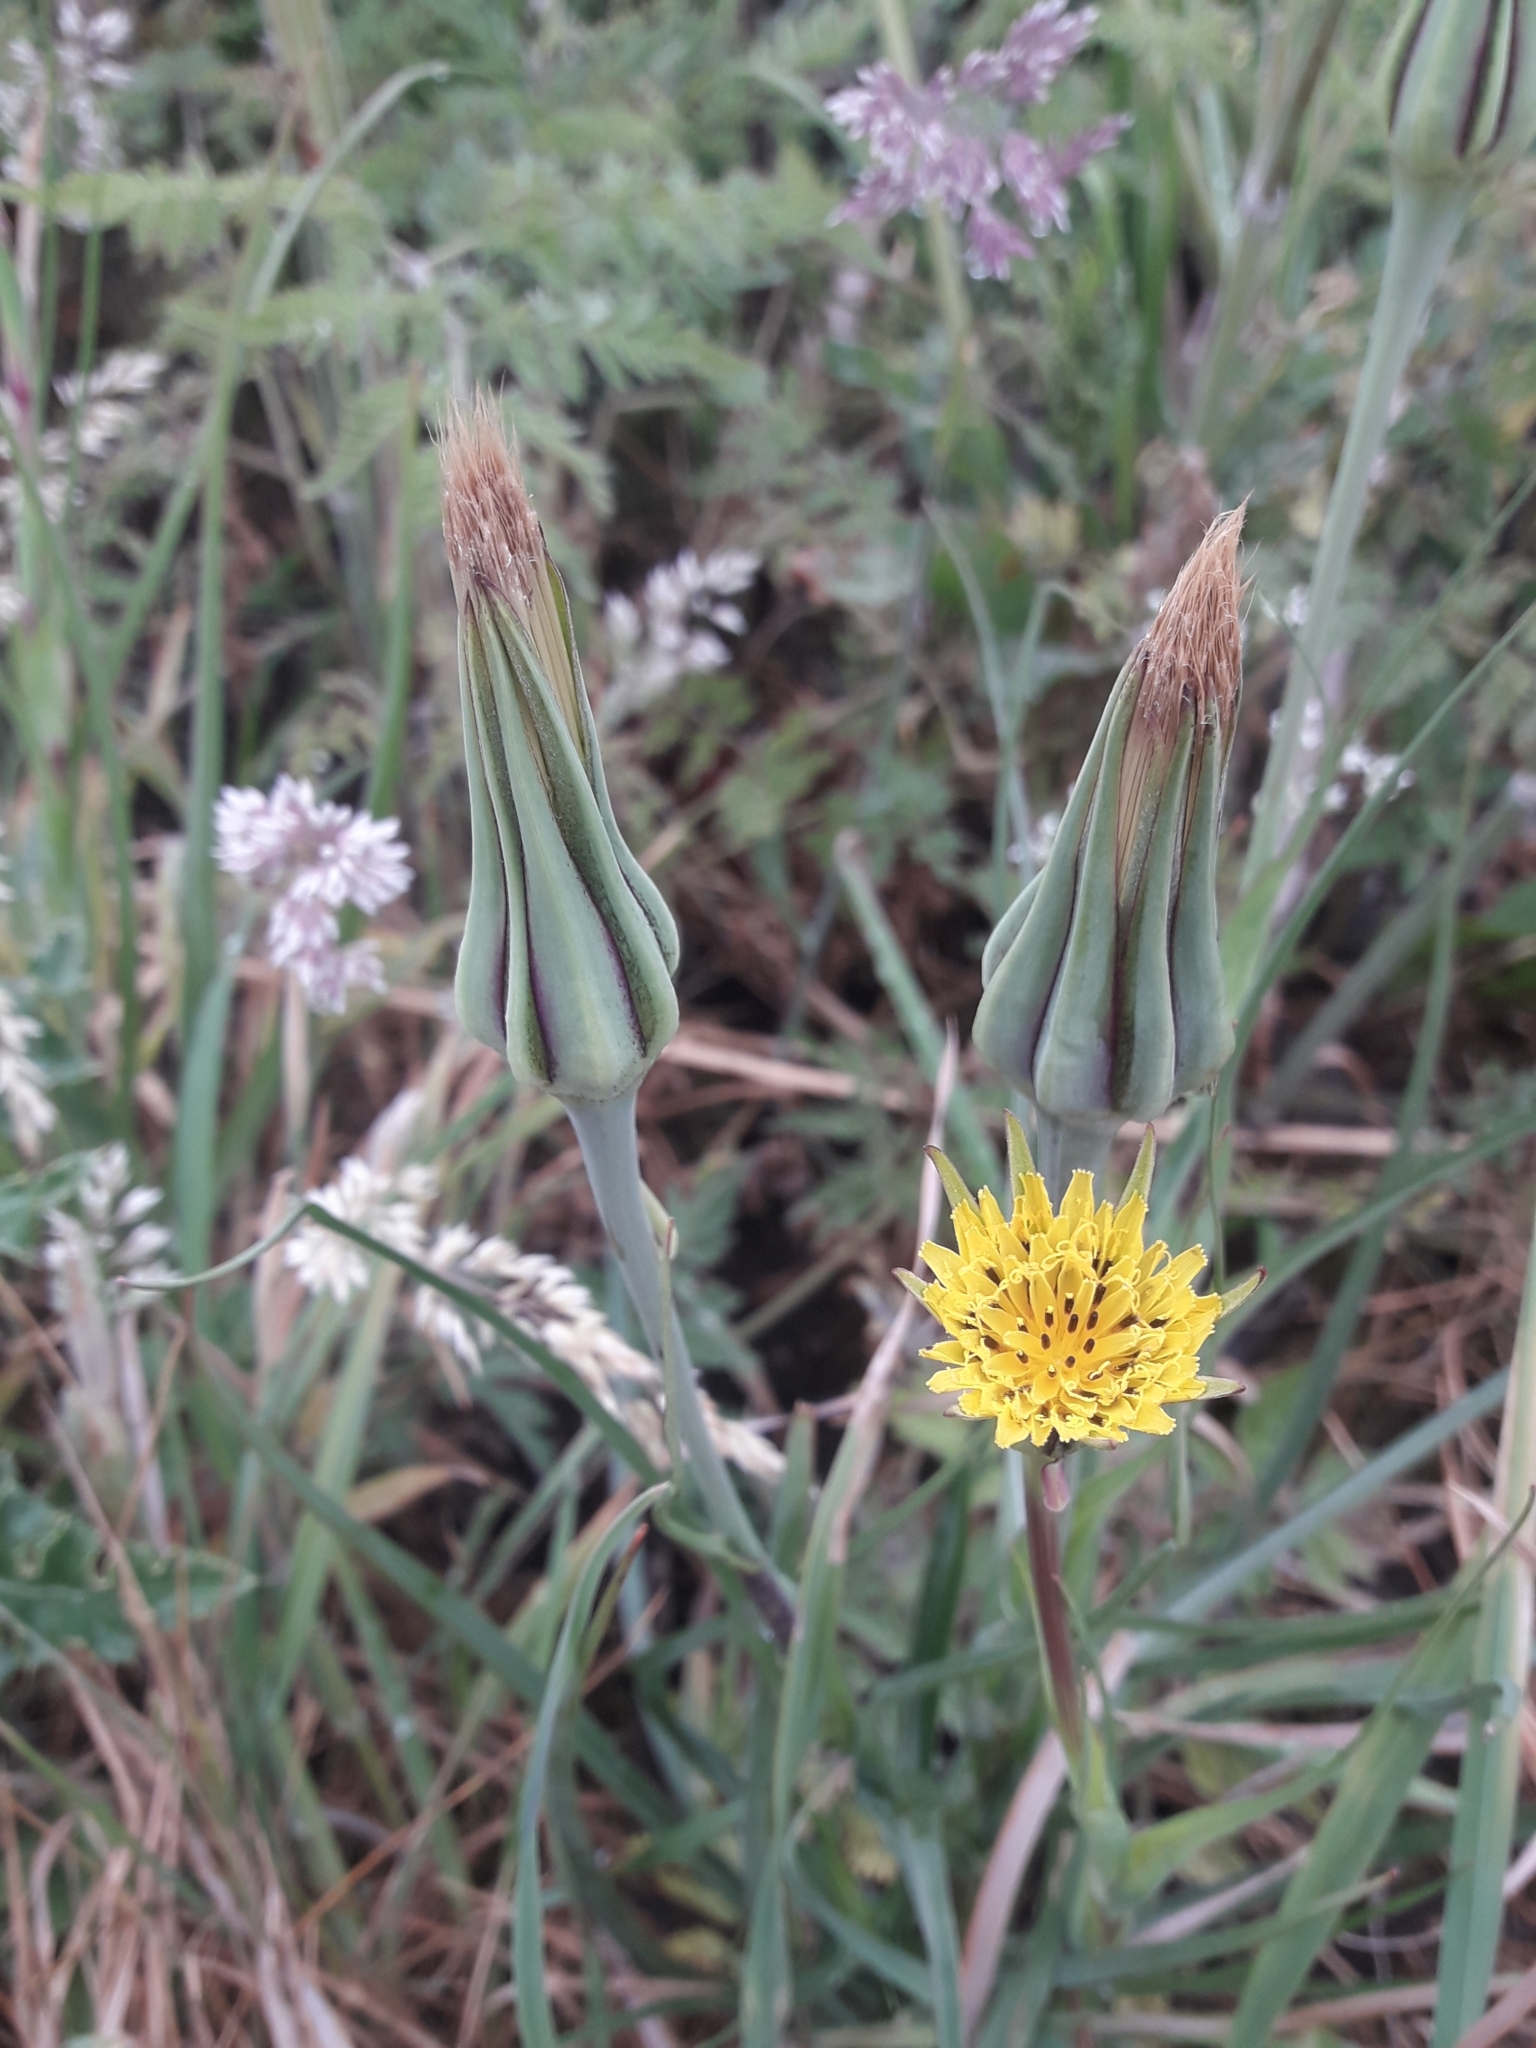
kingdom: Plantae
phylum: Tracheophyta
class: Magnoliopsida
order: Asterales
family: Asteraceae
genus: Tragopogon
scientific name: Tragopogon minor
